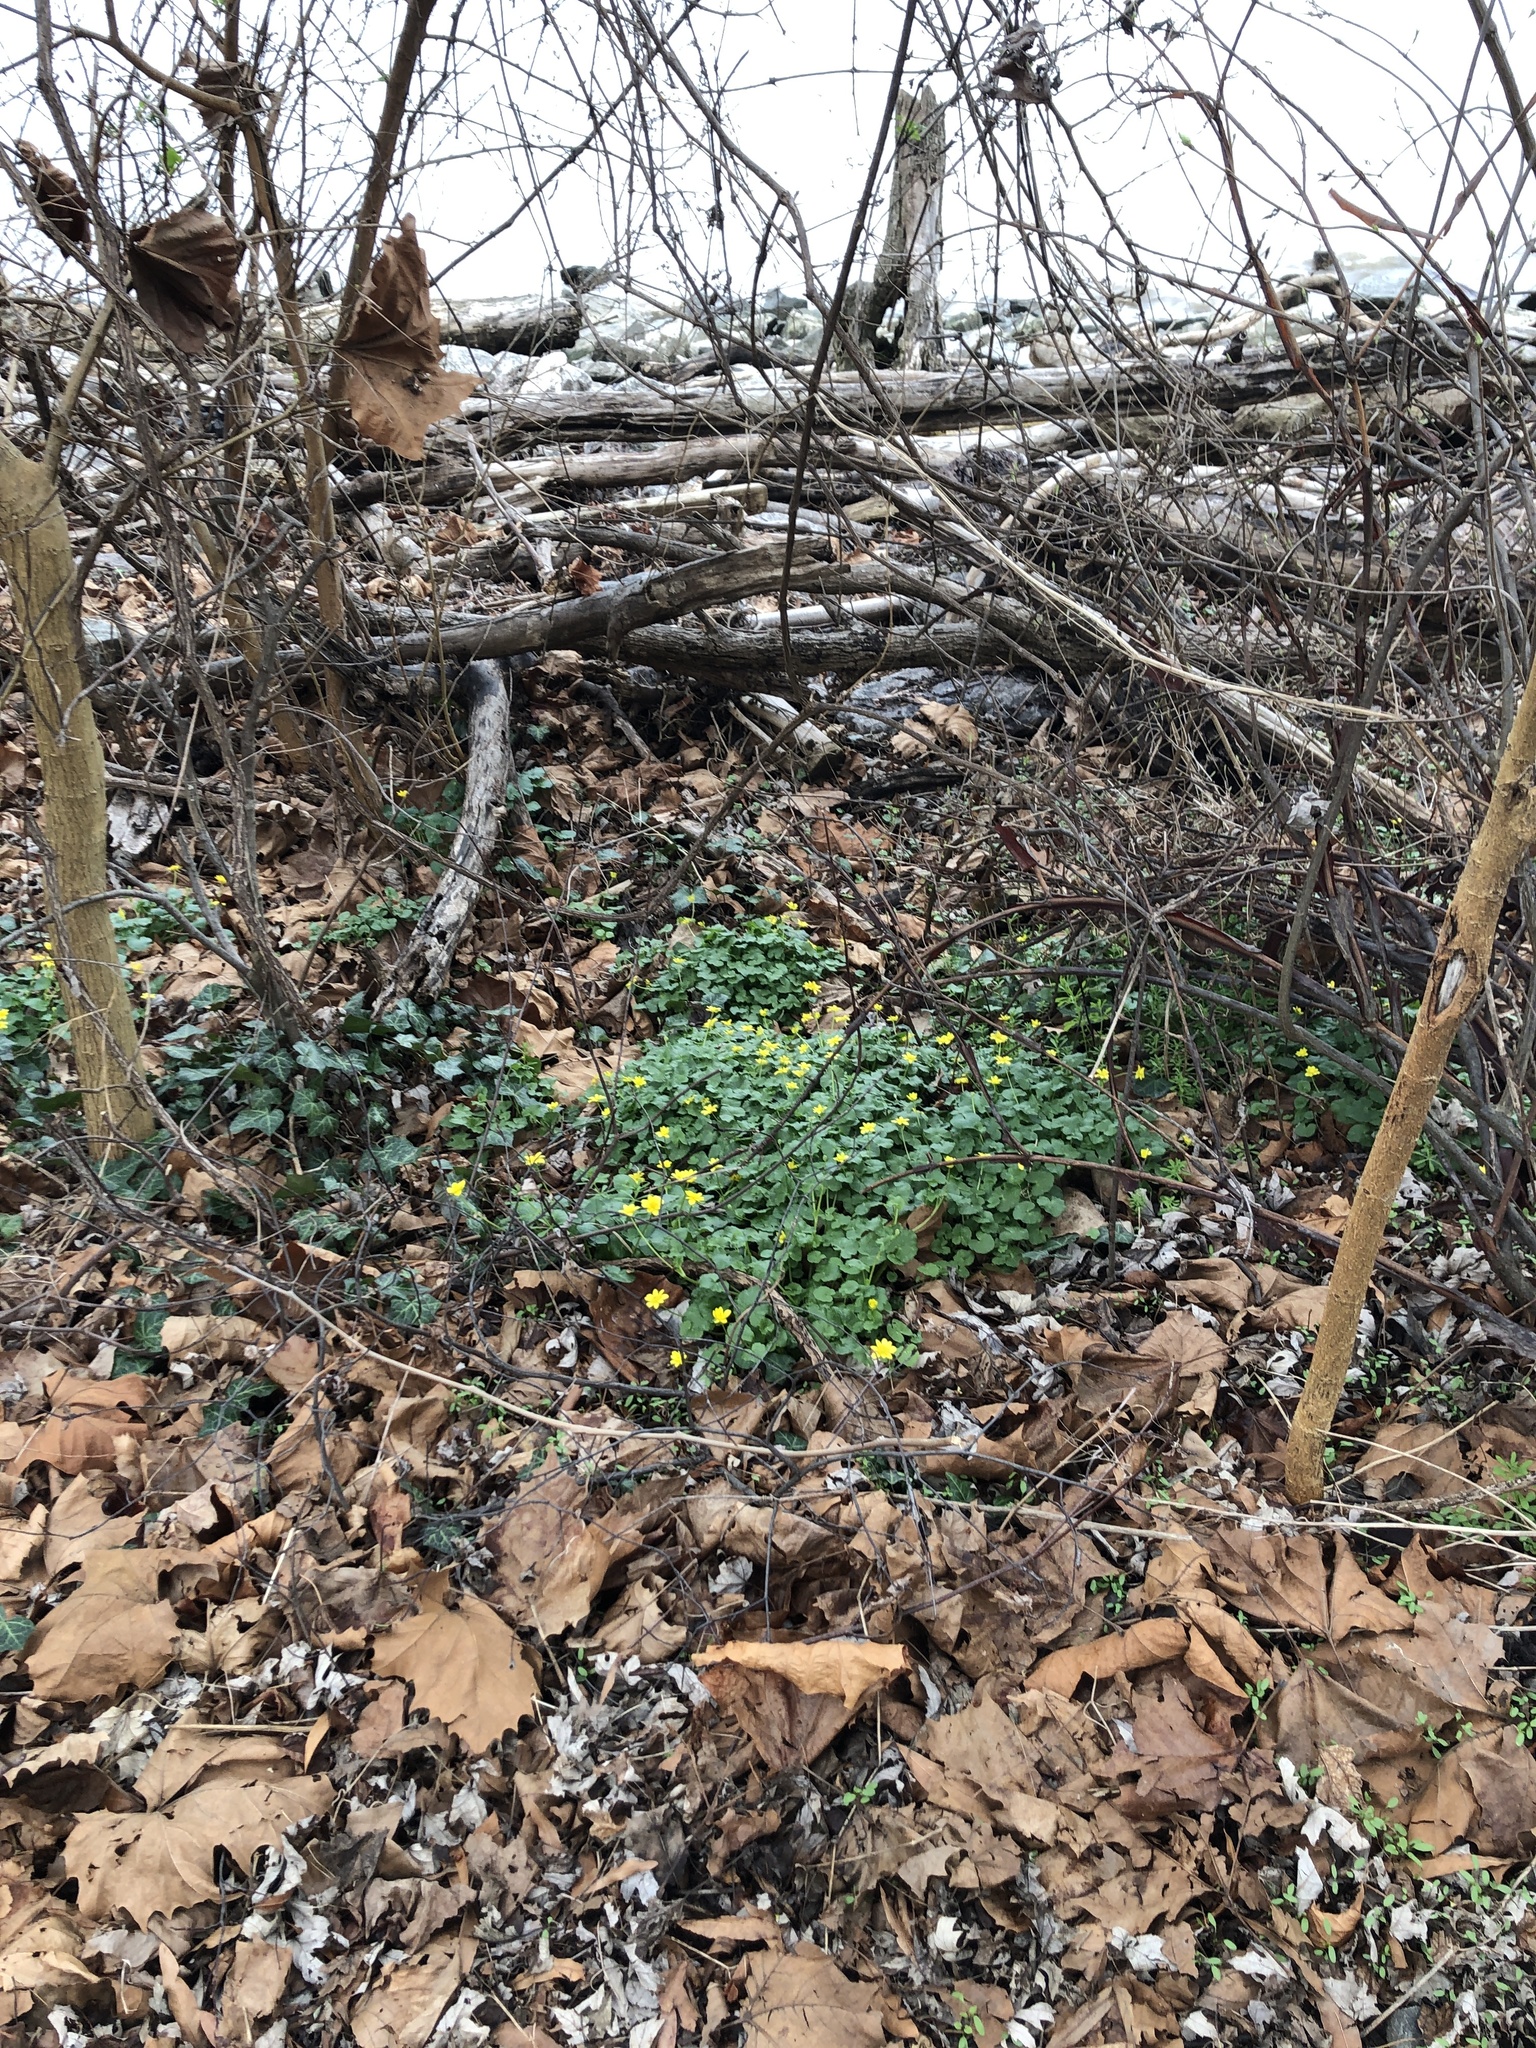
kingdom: Plantae
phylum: Tracheophyta
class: Magnoliopsida
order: Ranunculales
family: Ranunculaceae
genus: Ficaria
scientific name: Ficaria verna
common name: Lesser celandine
